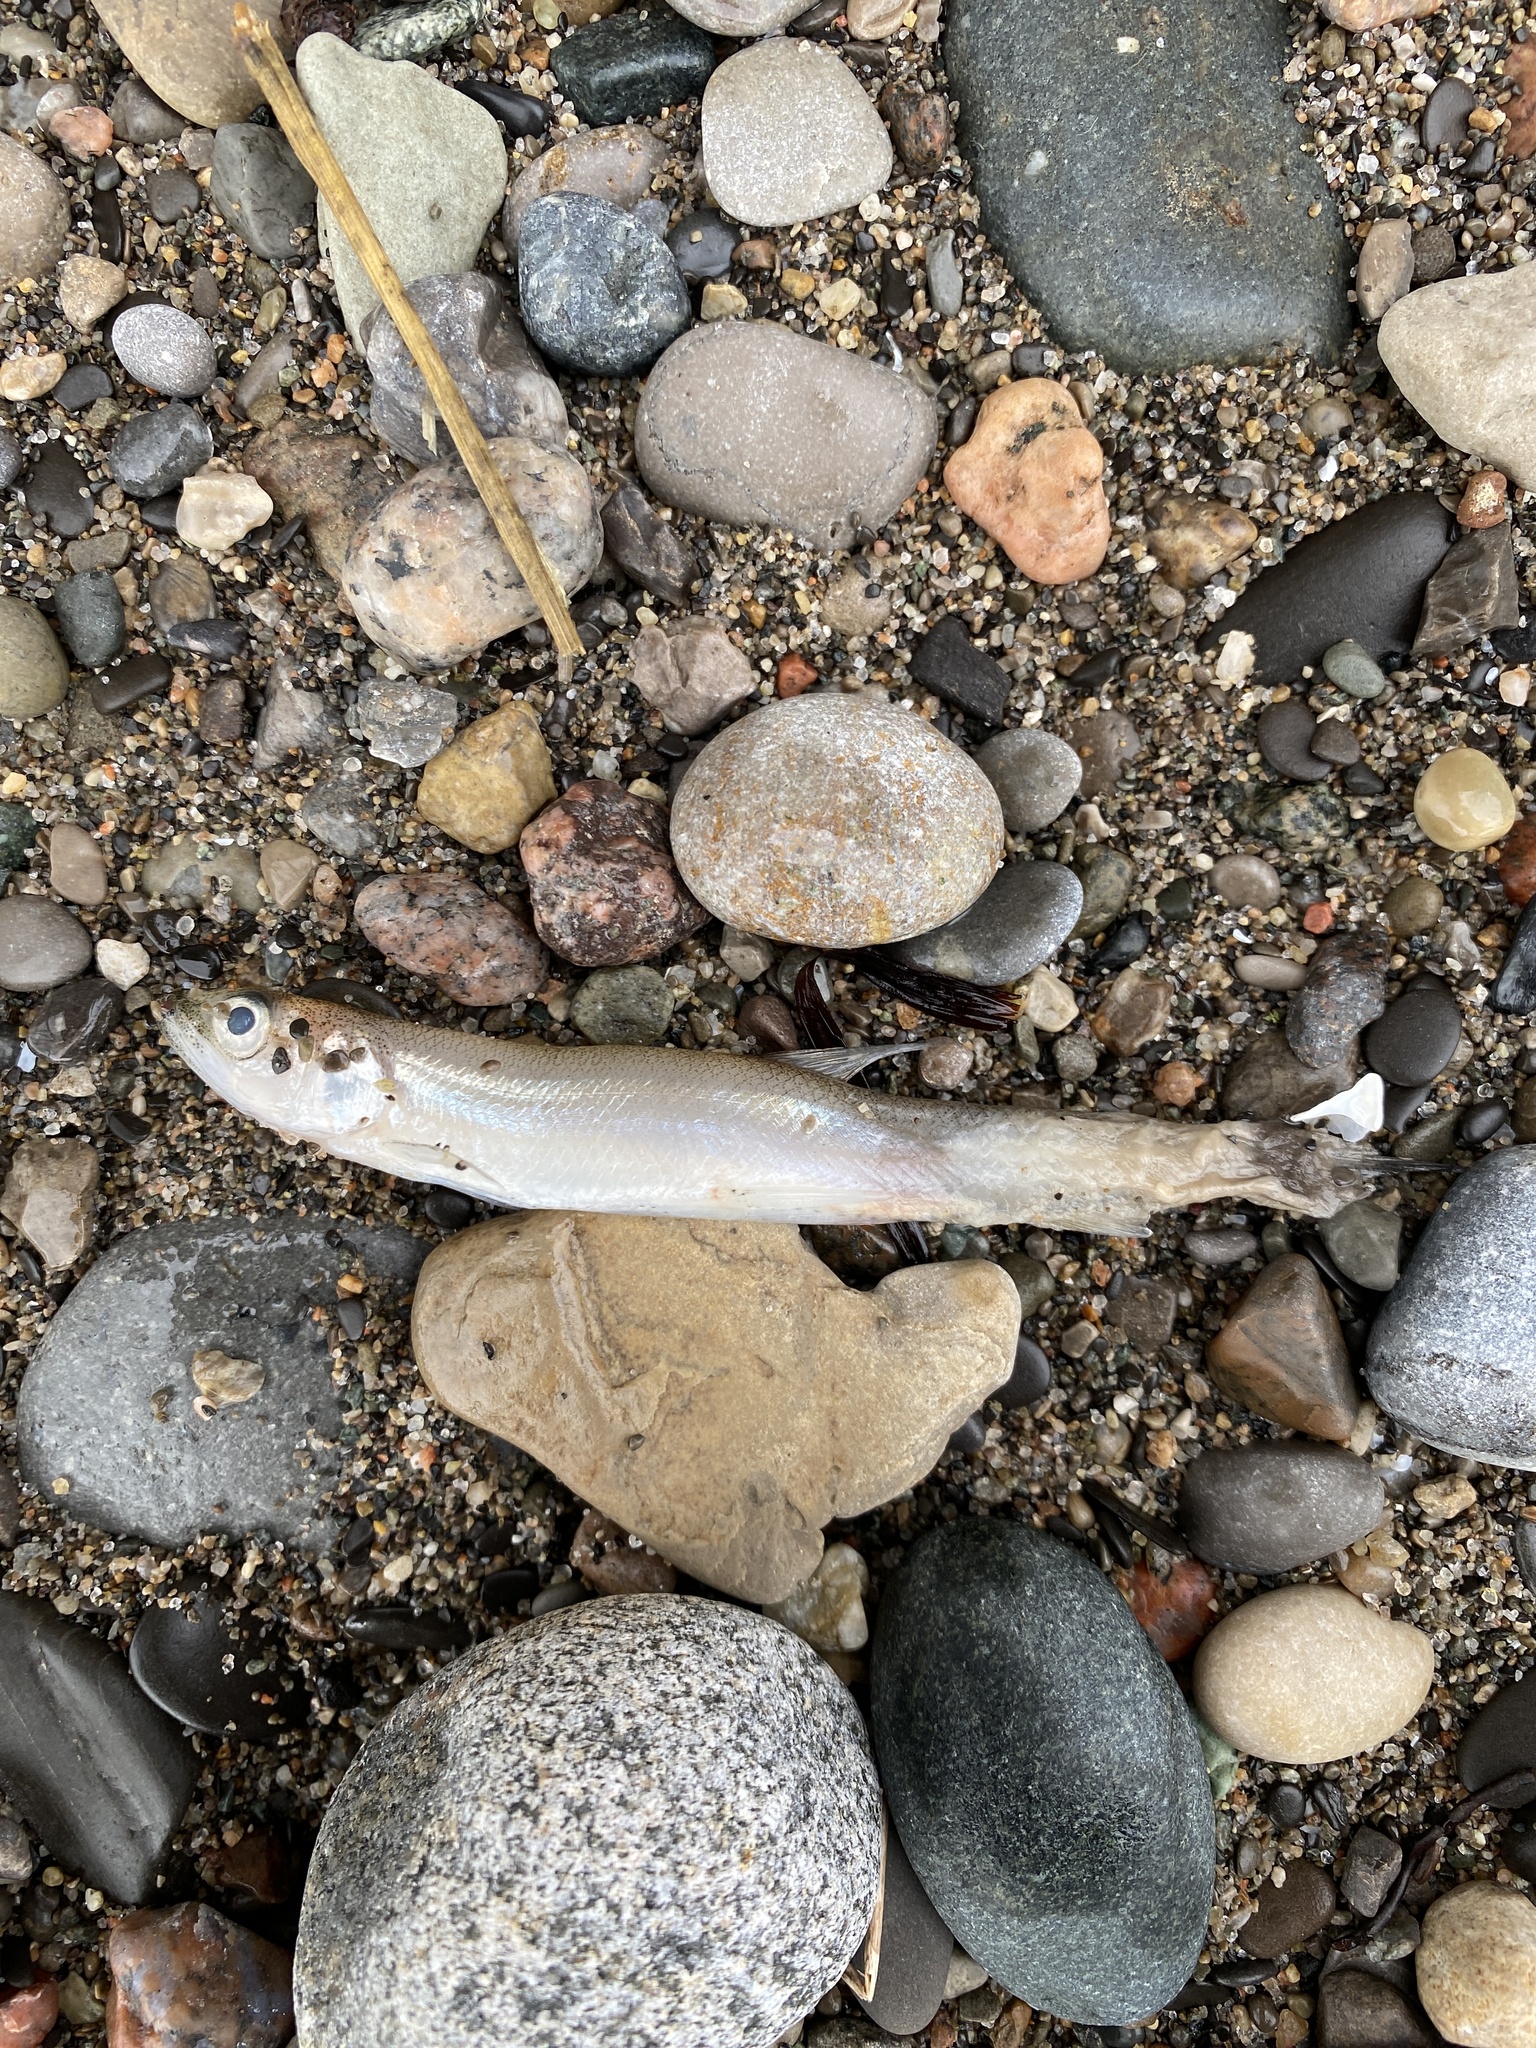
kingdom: Animalia
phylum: Chordata
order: Osmeriformes
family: Osmeridae
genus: Osmerus
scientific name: Osmerus mordax
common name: Rainbow smelt
